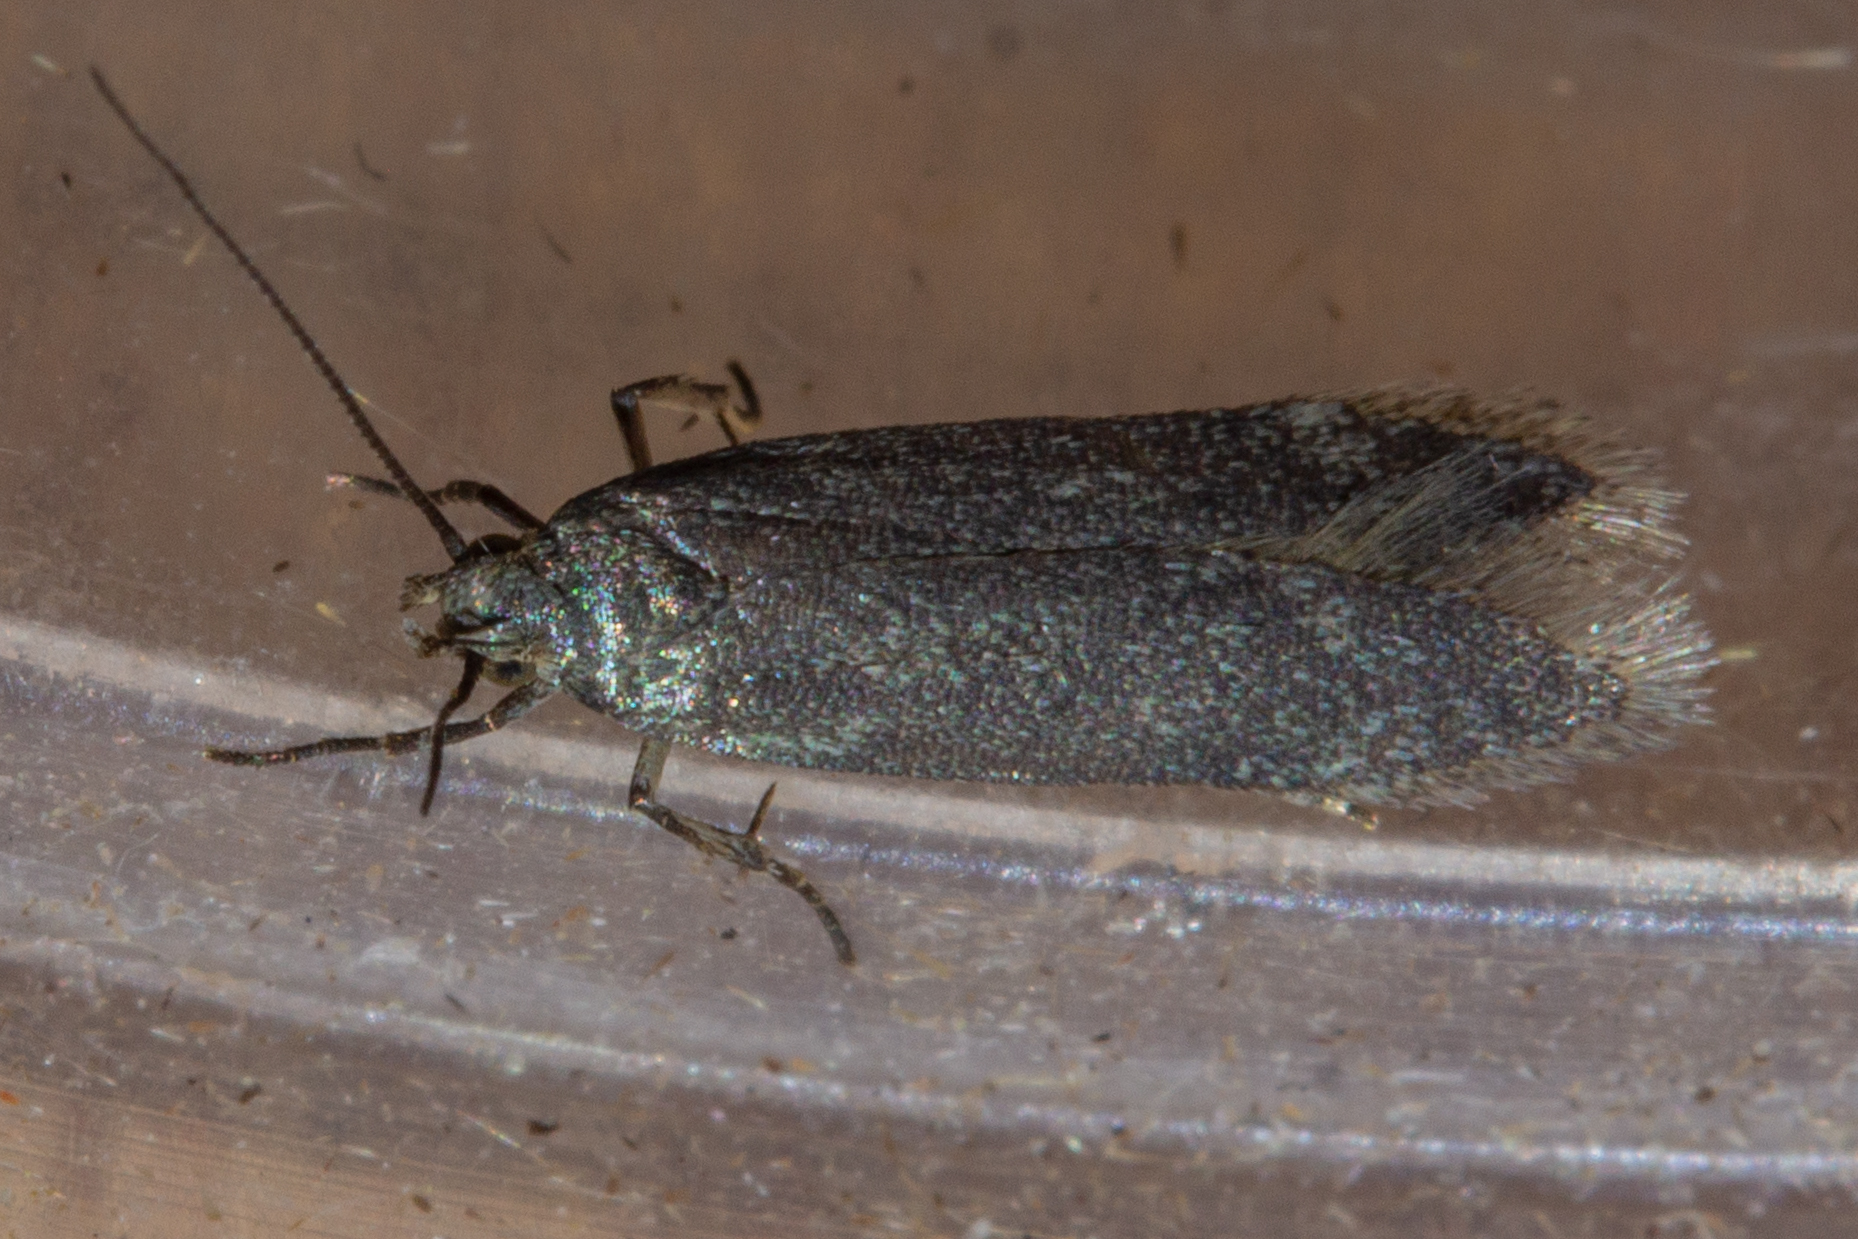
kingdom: Animalia
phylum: Arthropoda
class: Insecta
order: Lepidoptera
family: Gelechiidae
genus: Kiwaia
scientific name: Kiwaia lithodes
